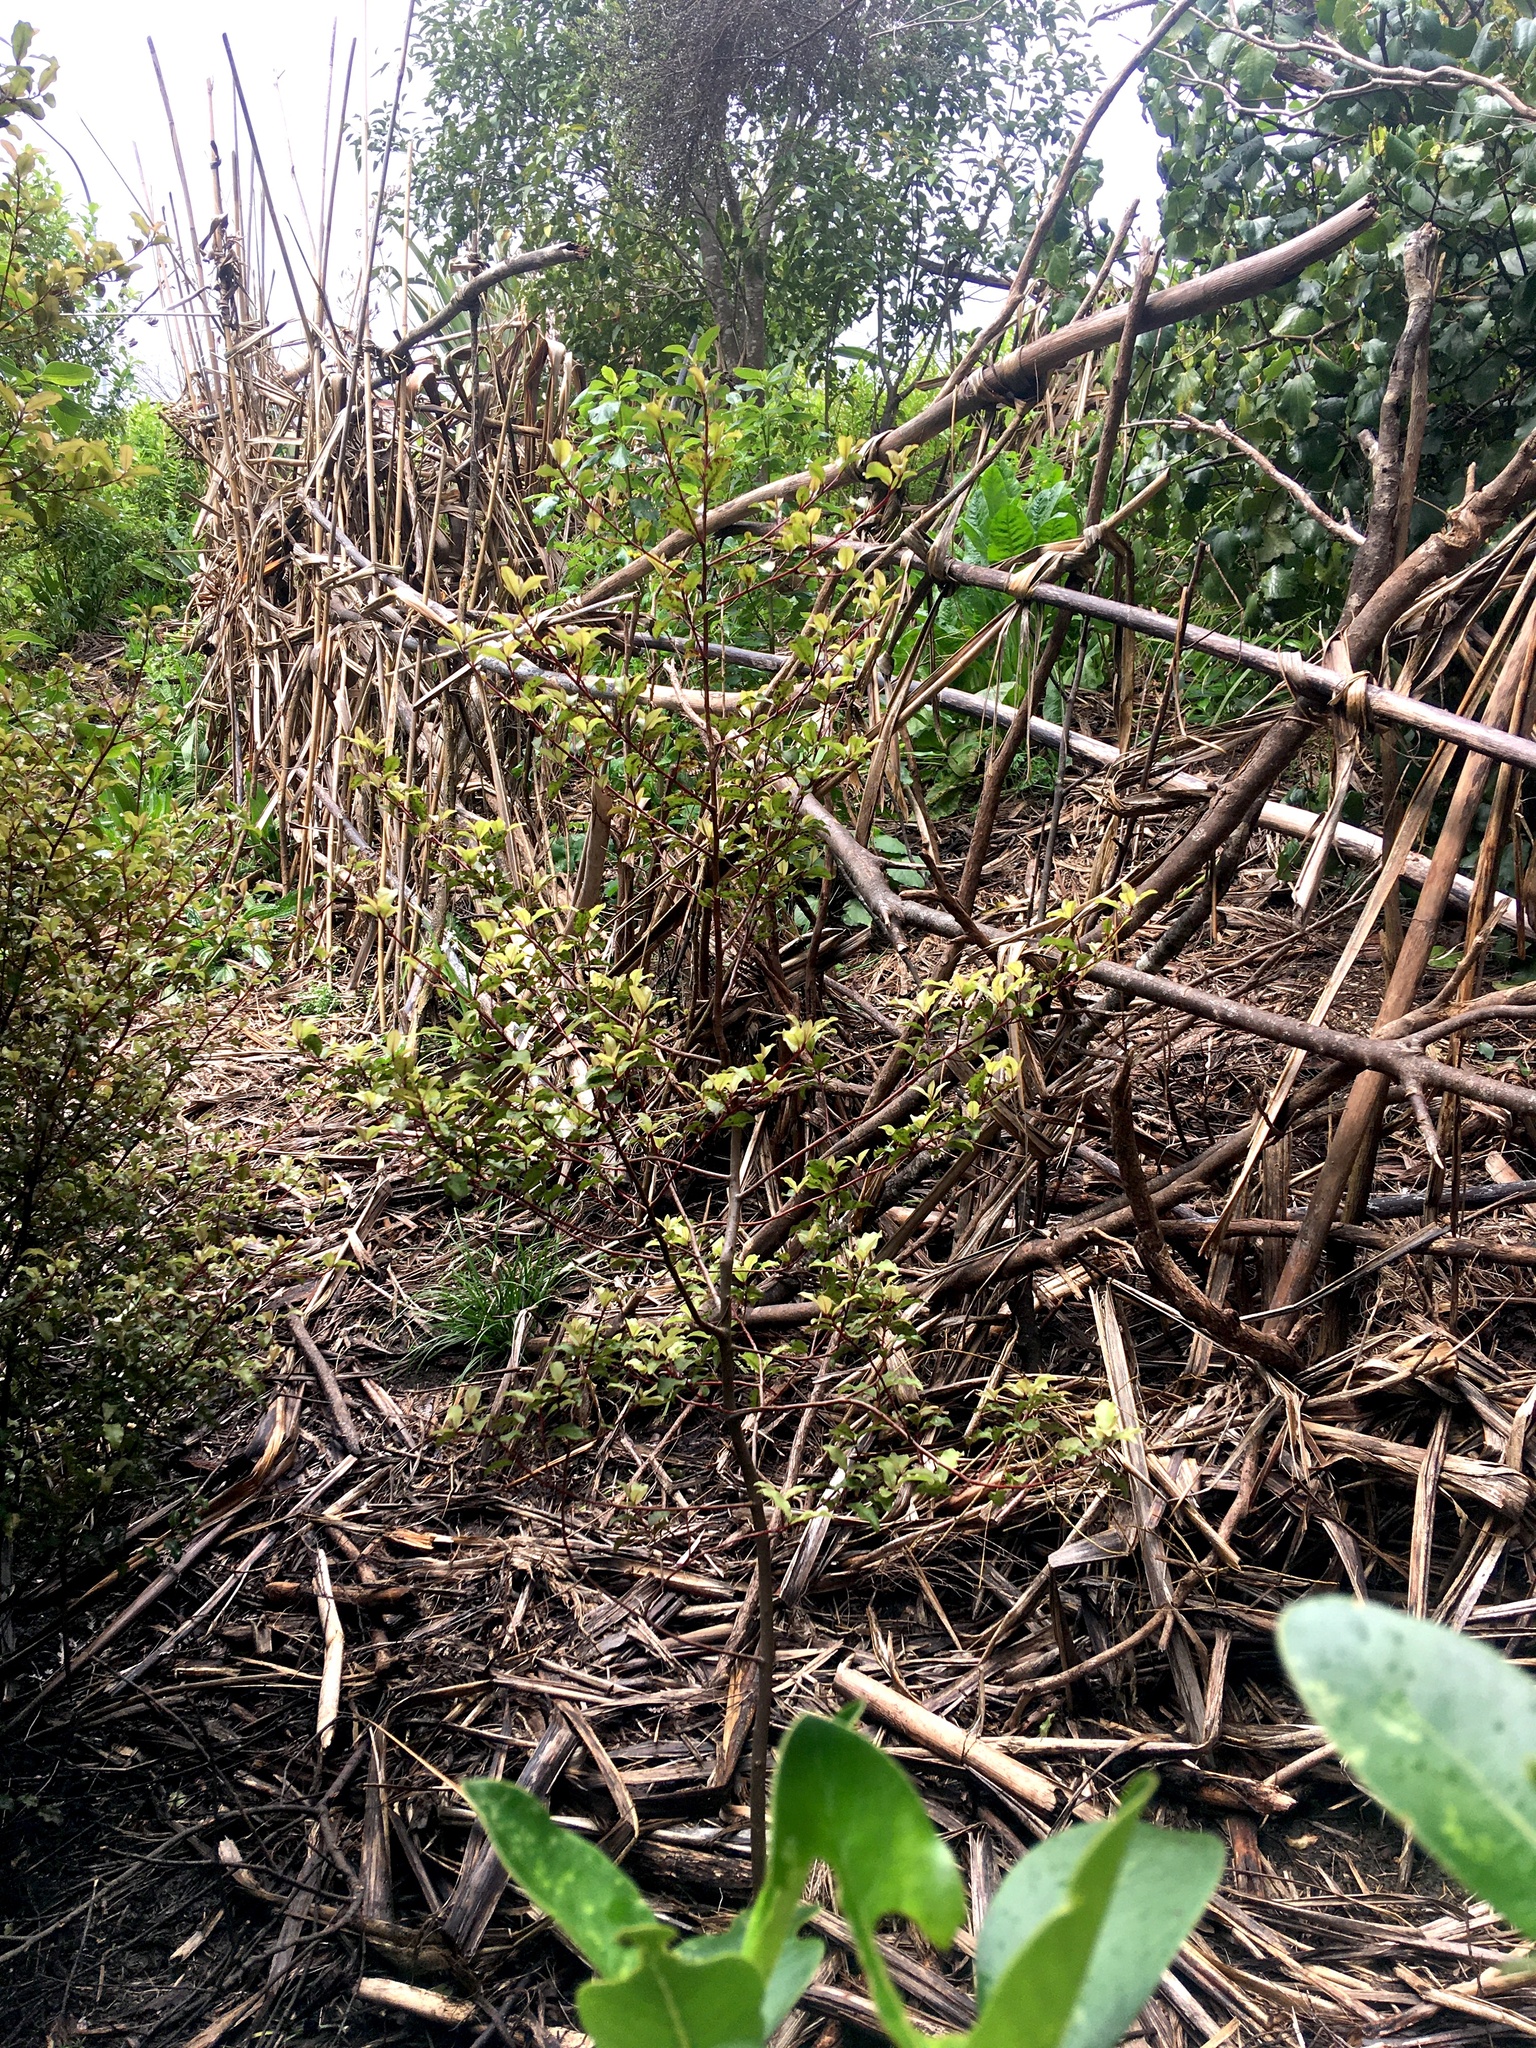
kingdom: Plantae
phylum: Tracheophyta
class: Magnoliopsida
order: Ericales
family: Primulaceae
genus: Myrsine
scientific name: Myrsine australis
